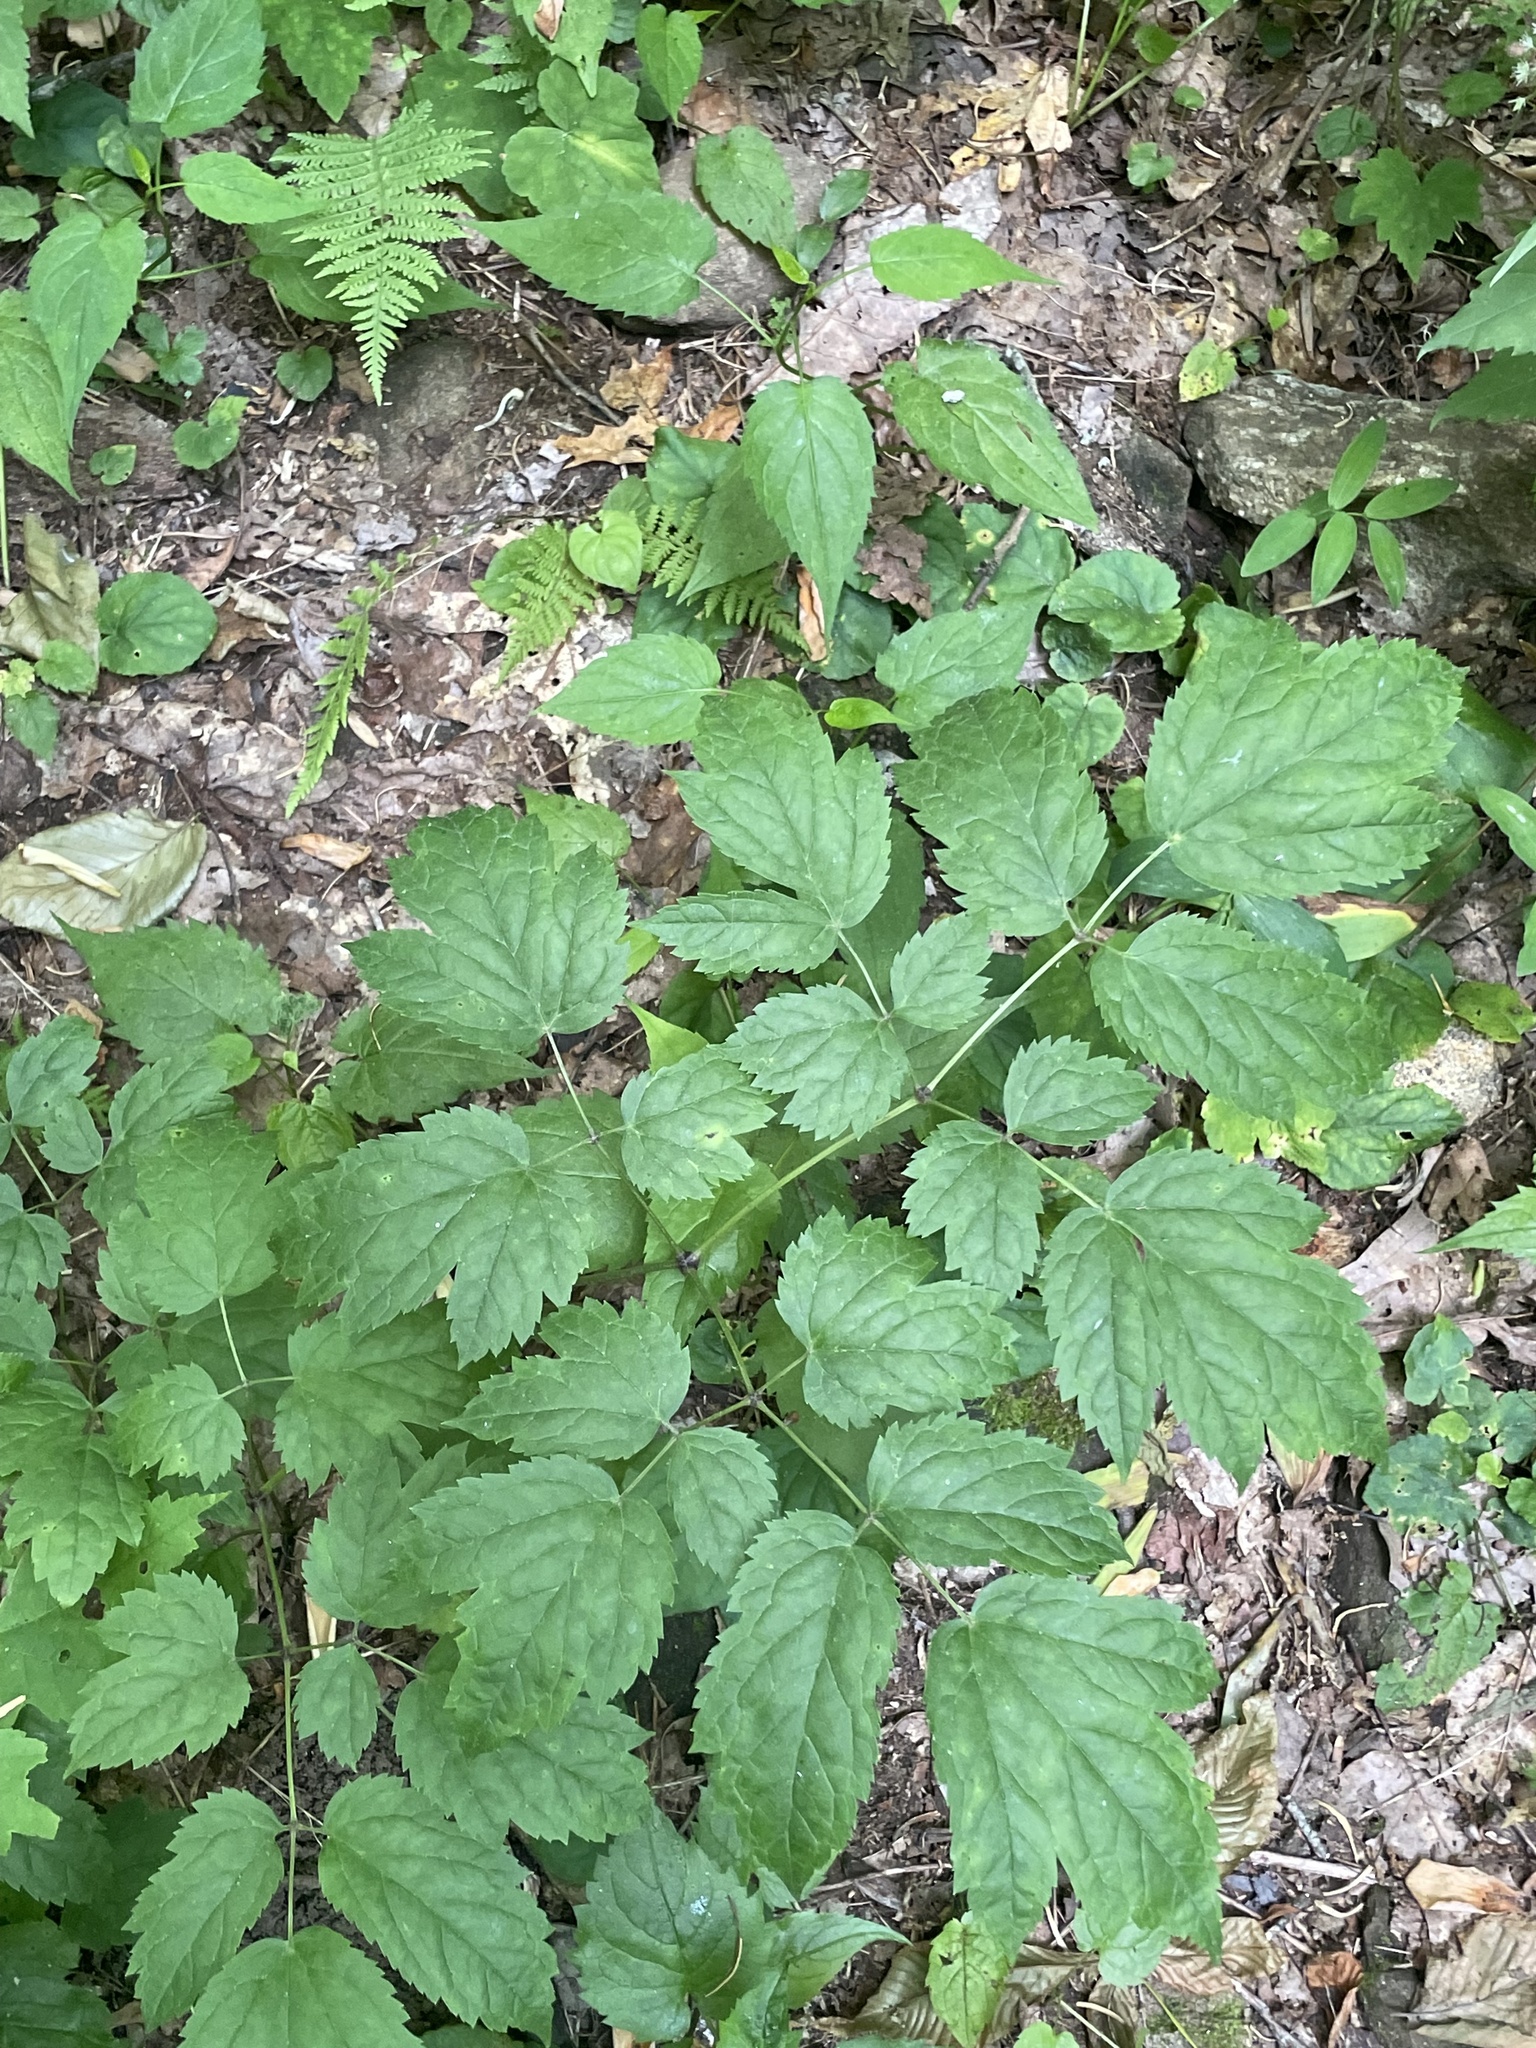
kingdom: Plantae
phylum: Tracheophyta
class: Magnoliopsida
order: Ranunculales
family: Ranunculaceae
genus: Actaea
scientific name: Actaea racemosa
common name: Black cohosh
